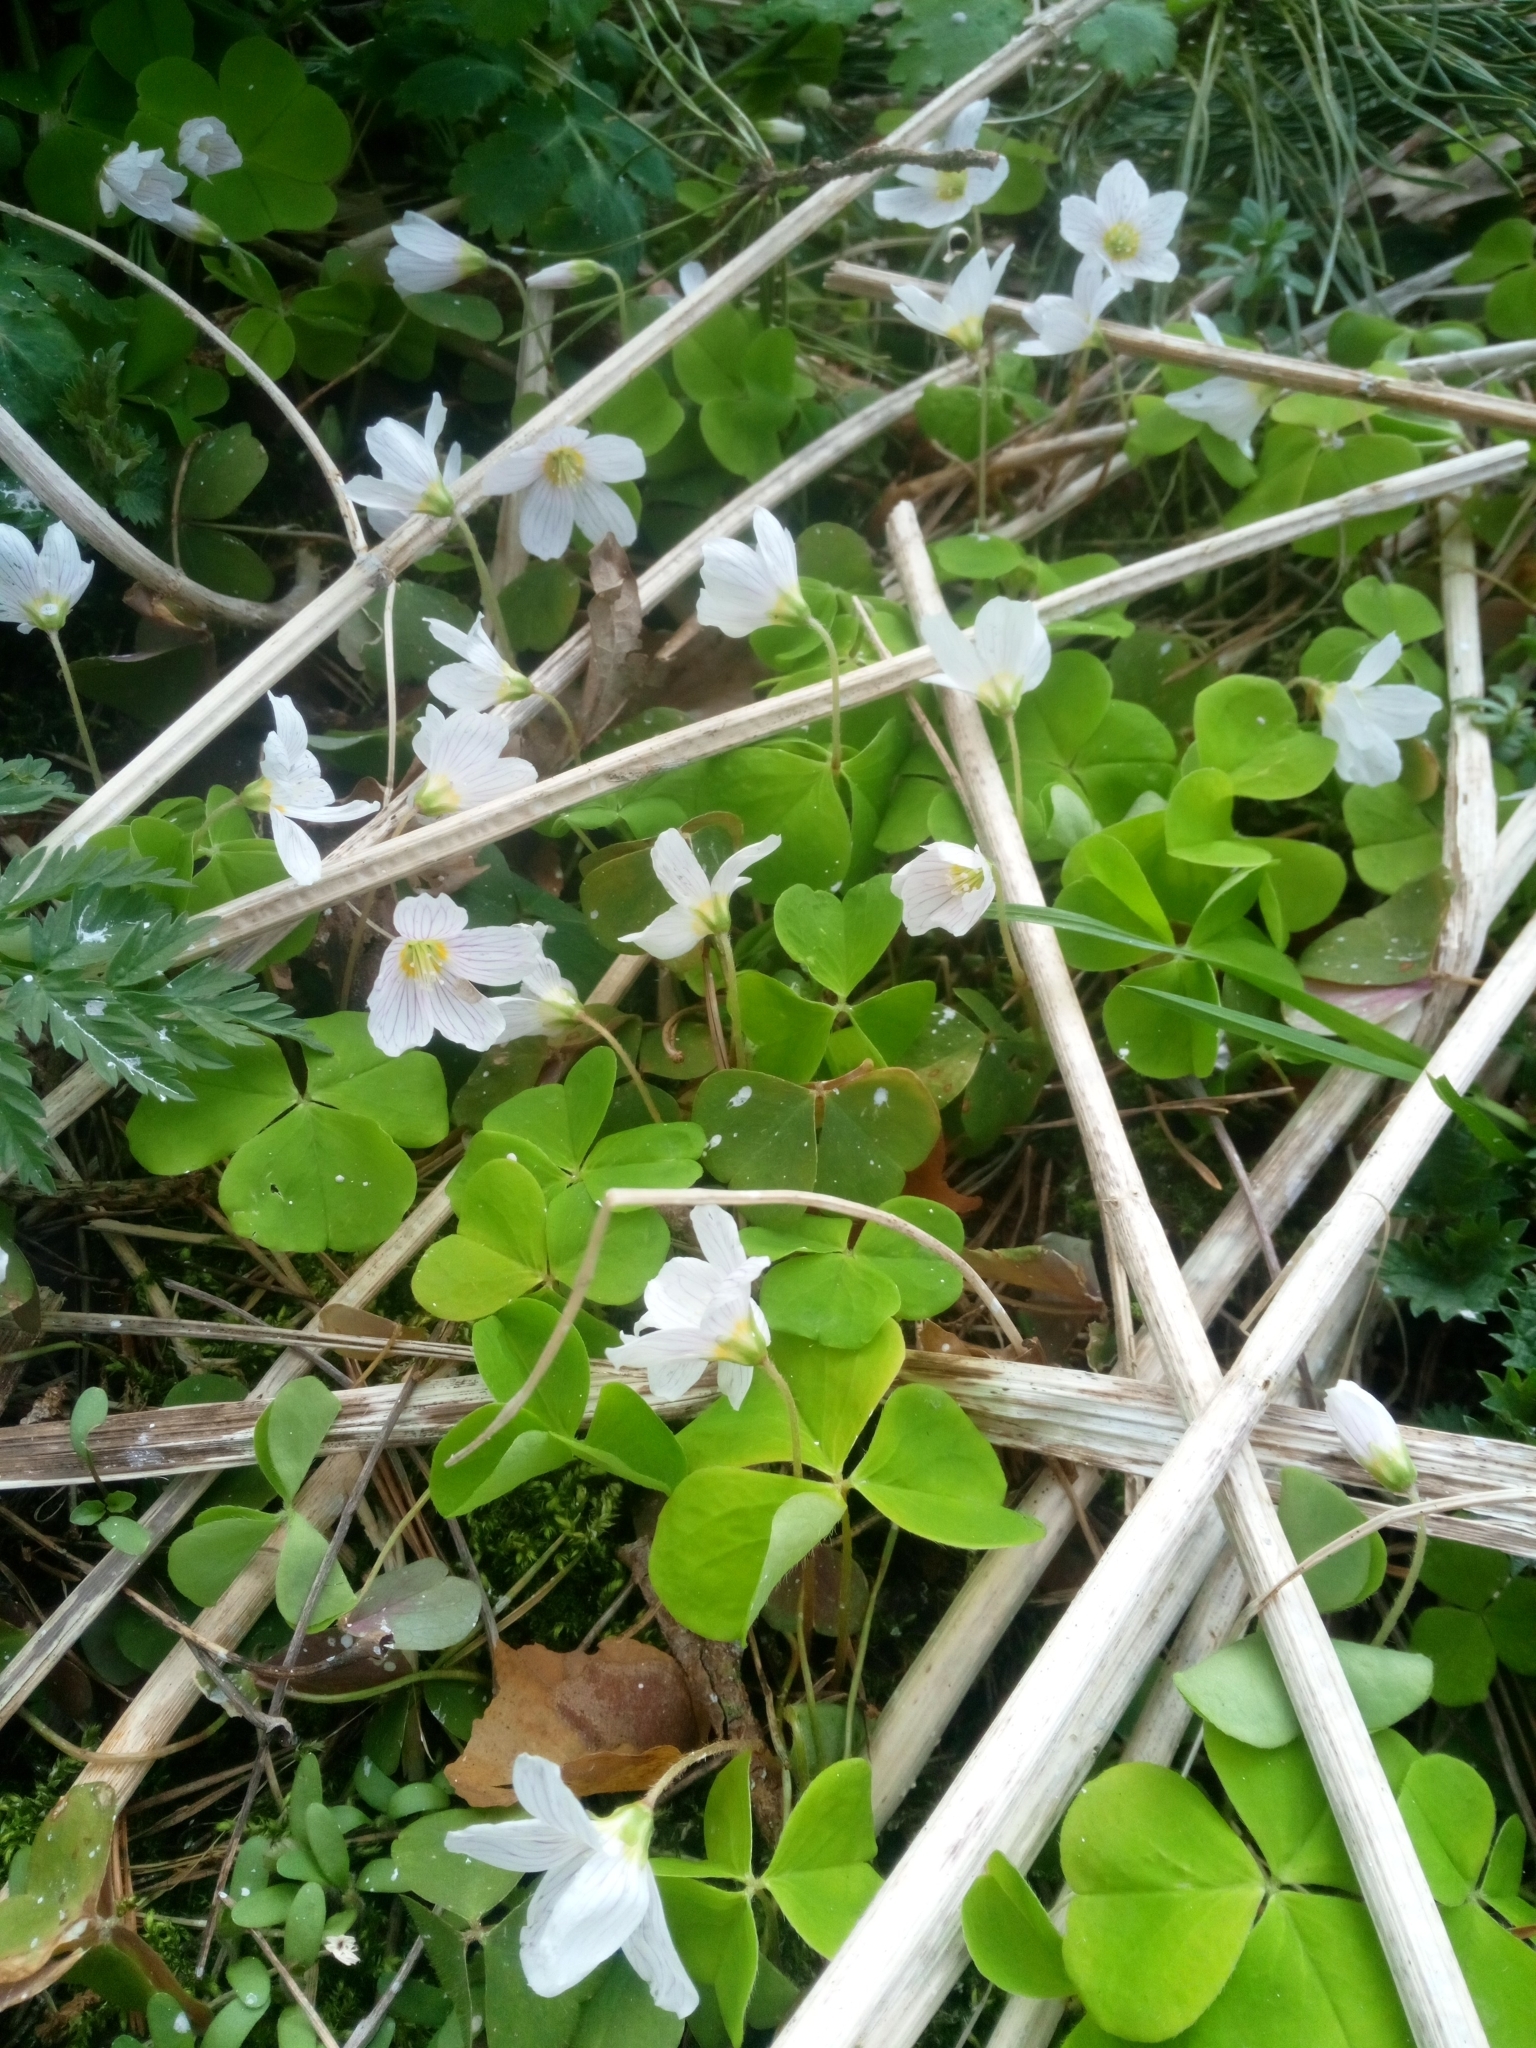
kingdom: Plantae
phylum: Tracheophyta
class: Magnoliopsida
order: Oxalidales
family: Oxalidaceae
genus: Oxalis
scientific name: Oxalis acetosella
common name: Wood-sorrel
